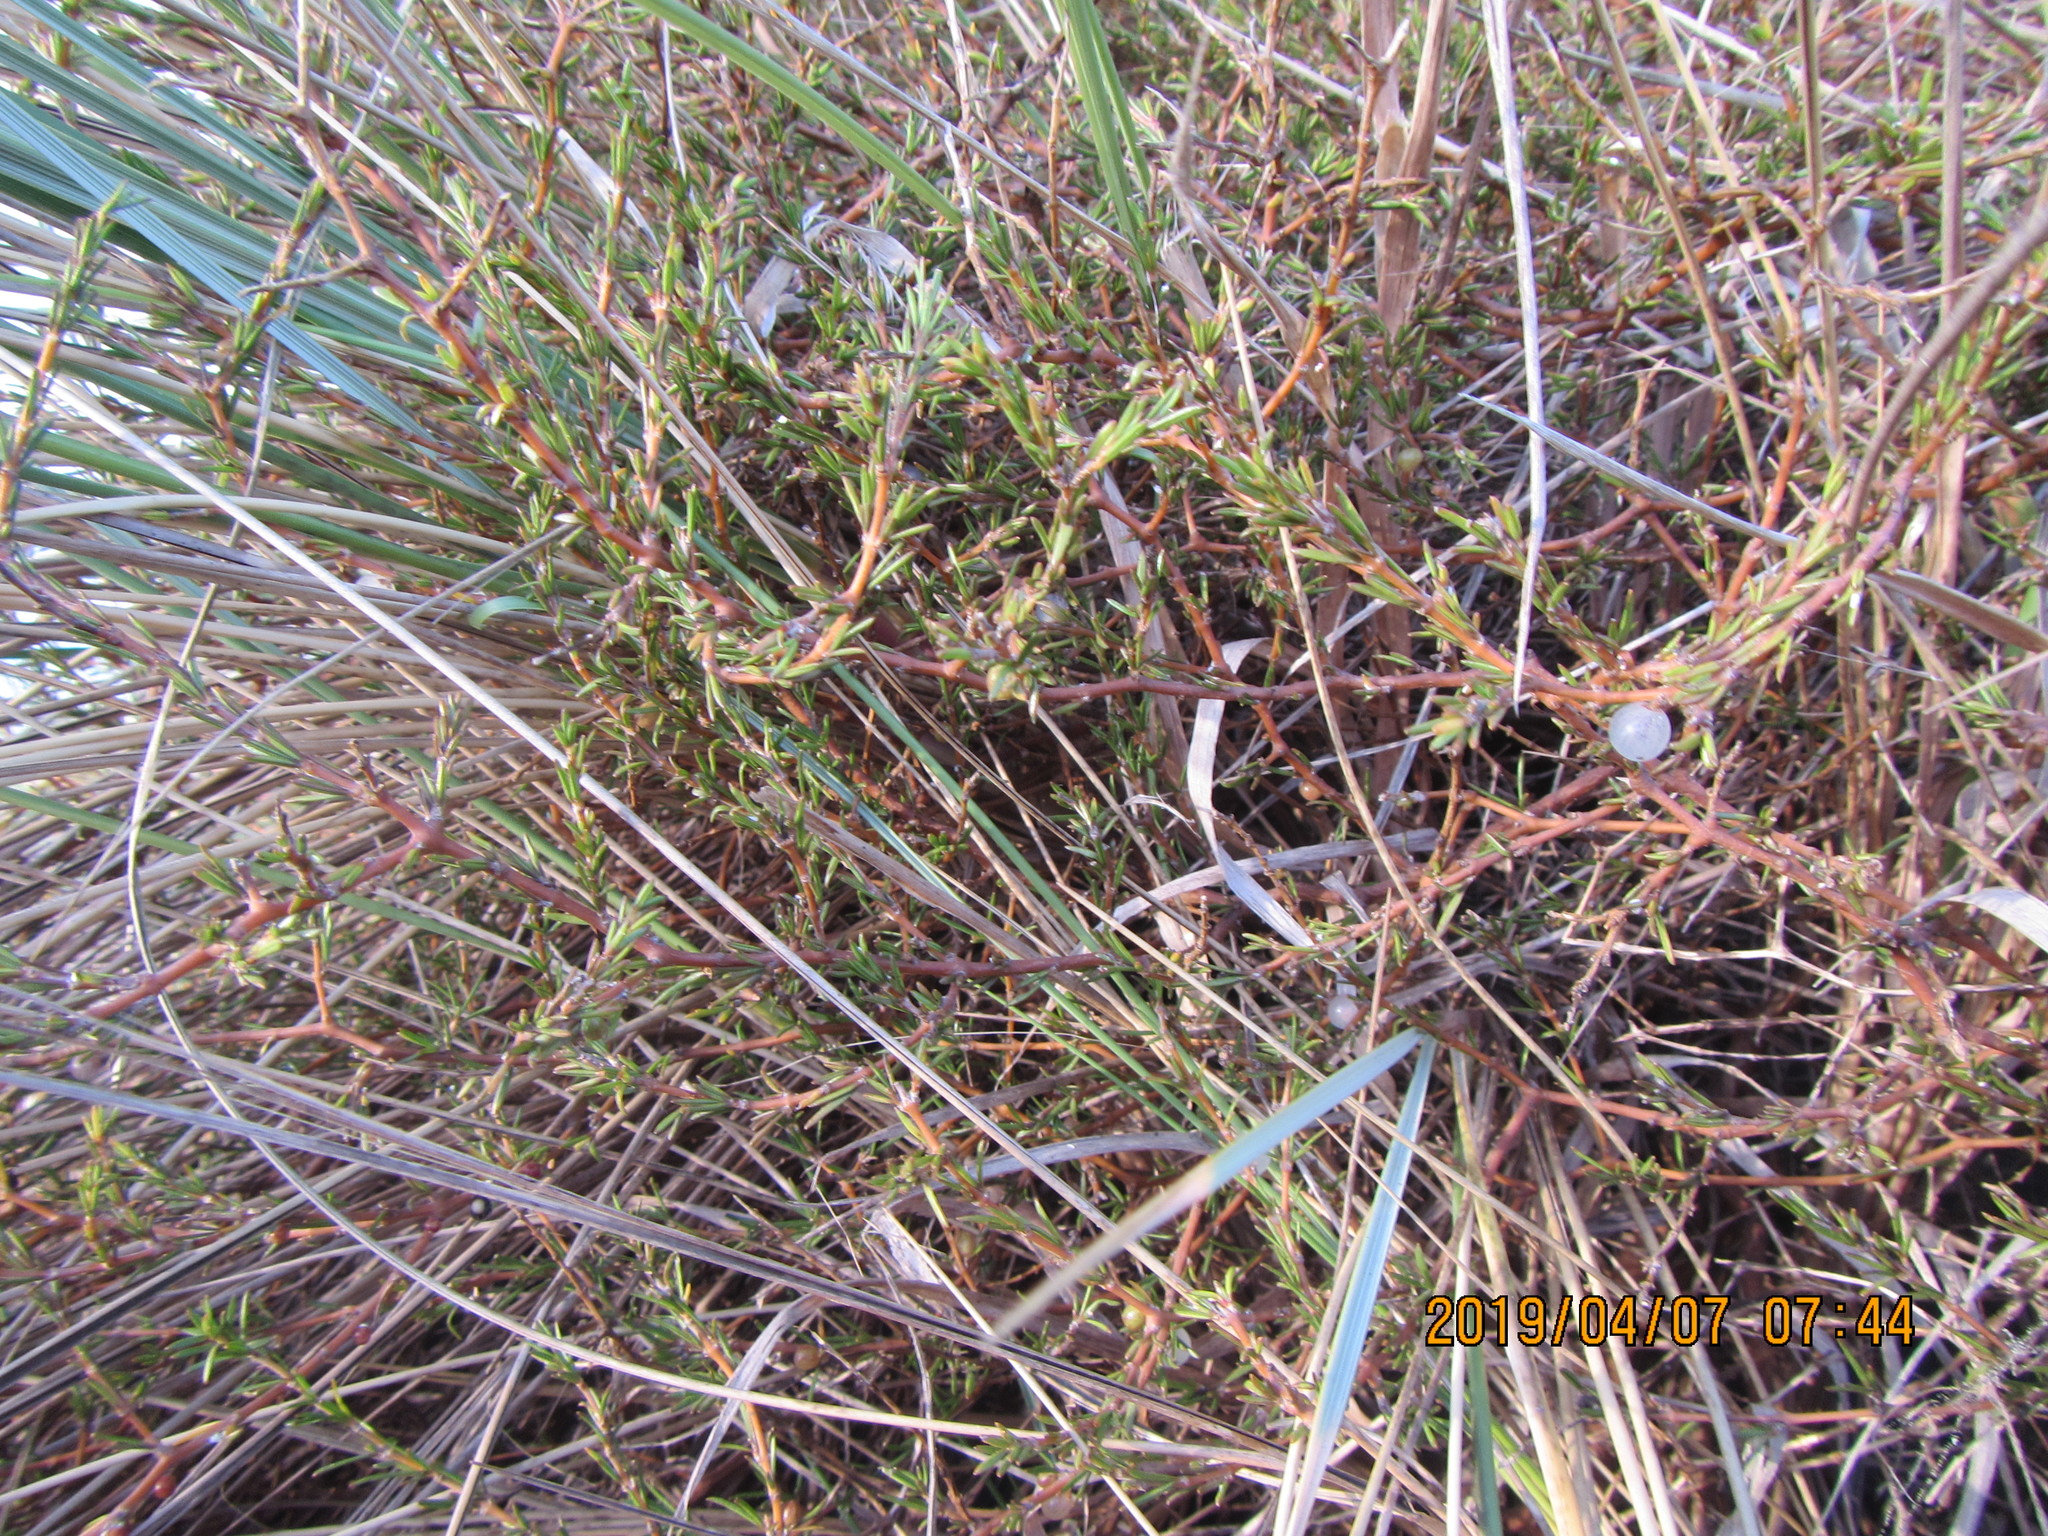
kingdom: Plantae
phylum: Tracheophyta
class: Magnoliopsida
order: Gentianales
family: Rubiaceae
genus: Coprosma
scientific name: Coprosma acerosa
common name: Sand coprosma
